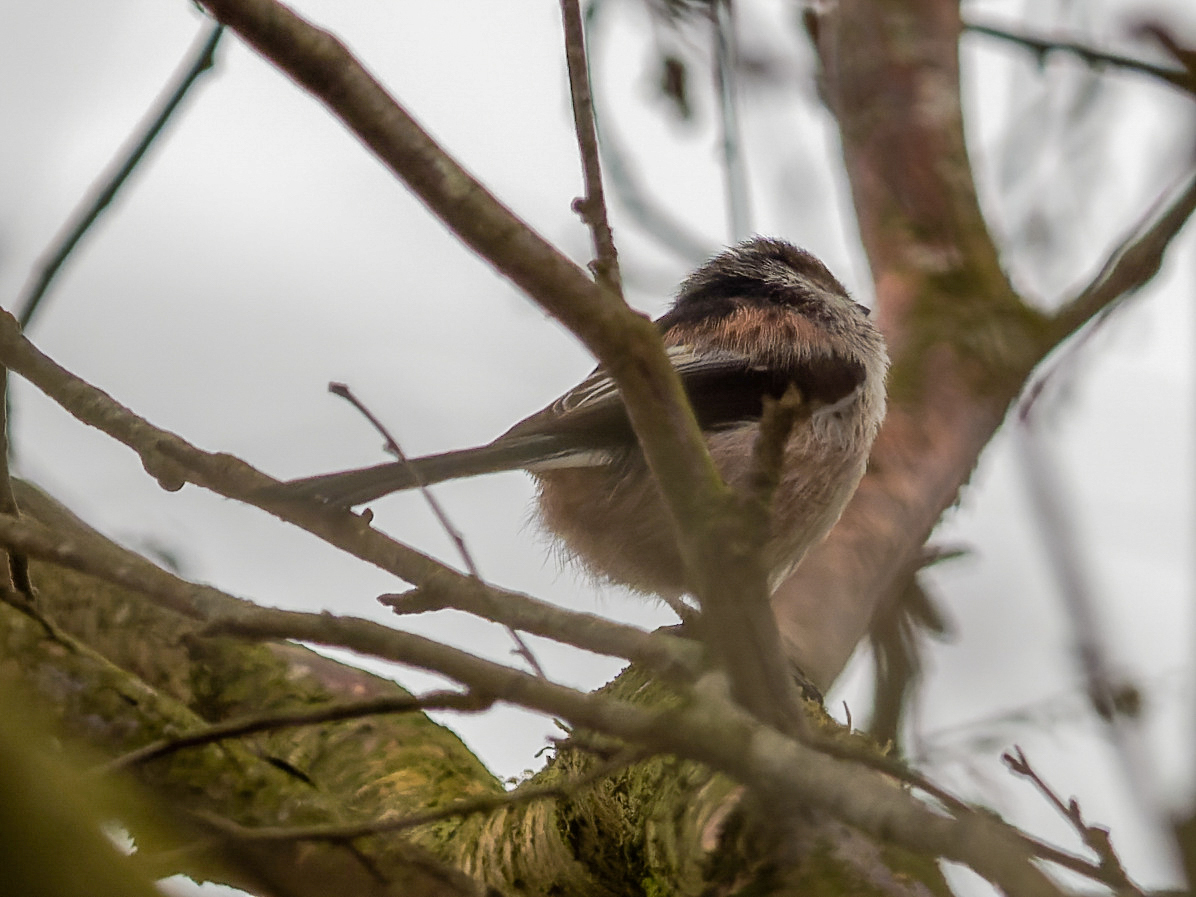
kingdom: Animalia
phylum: Chordata
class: Aves
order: Passeriformes
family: Aegithalidae
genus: Aegithalos
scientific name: Aegithalos caudatus
